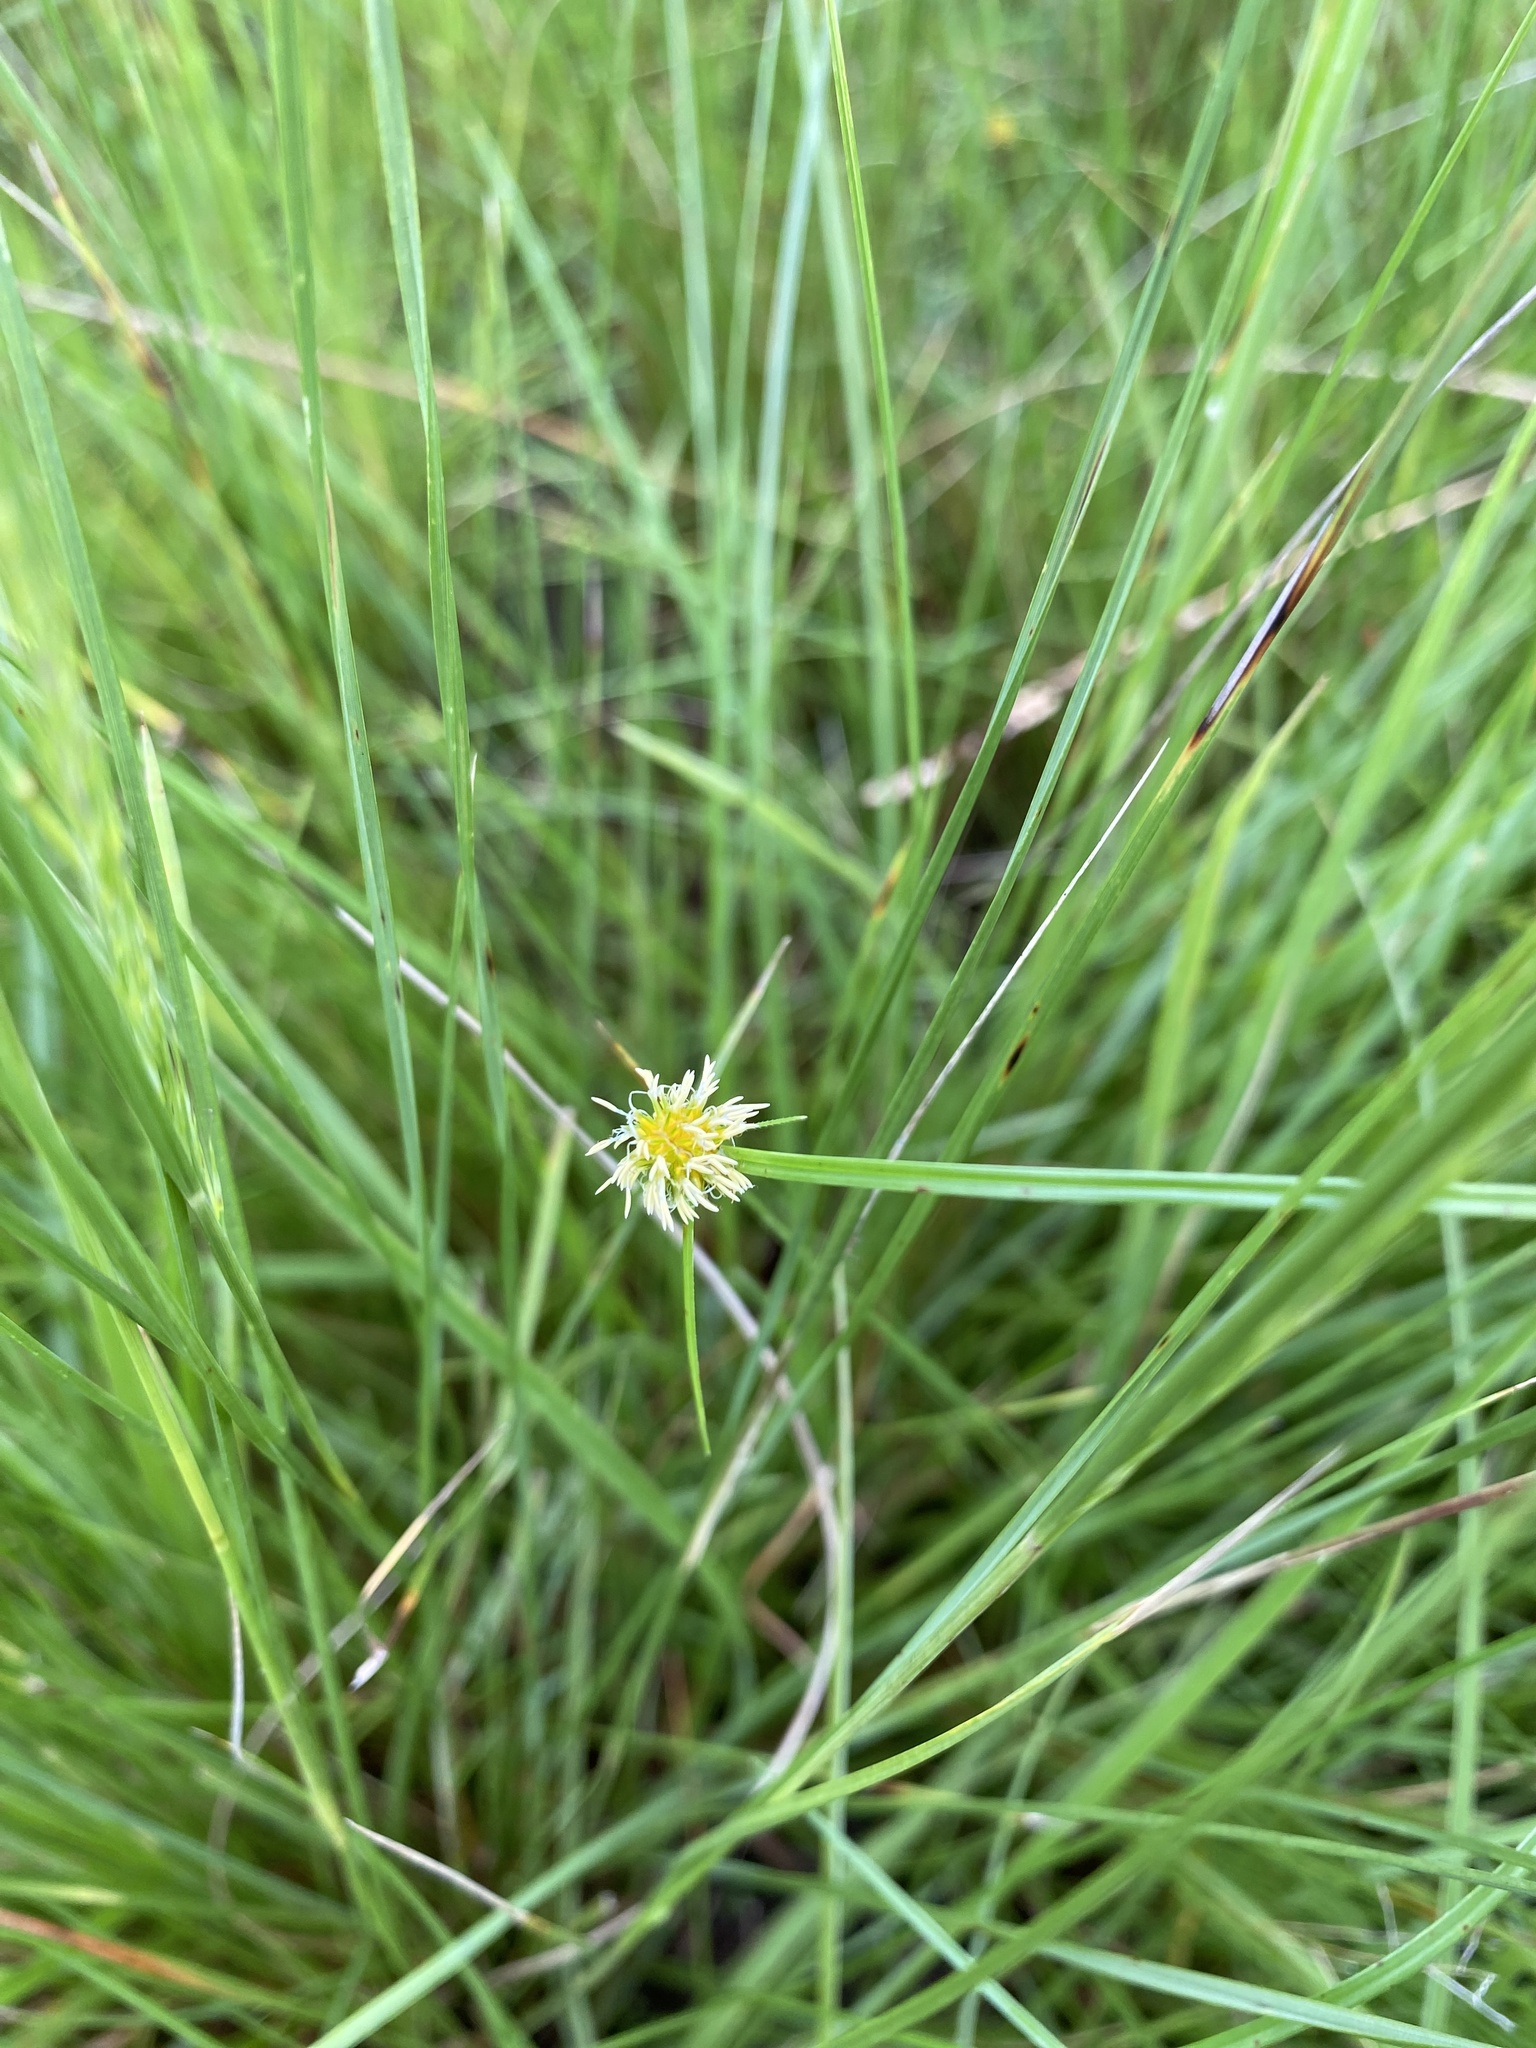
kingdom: Plantae
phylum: Tracheophyta
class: Liliopsida
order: Poales
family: Cyperaceae
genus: Cyperus
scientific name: Cyperus erectus
